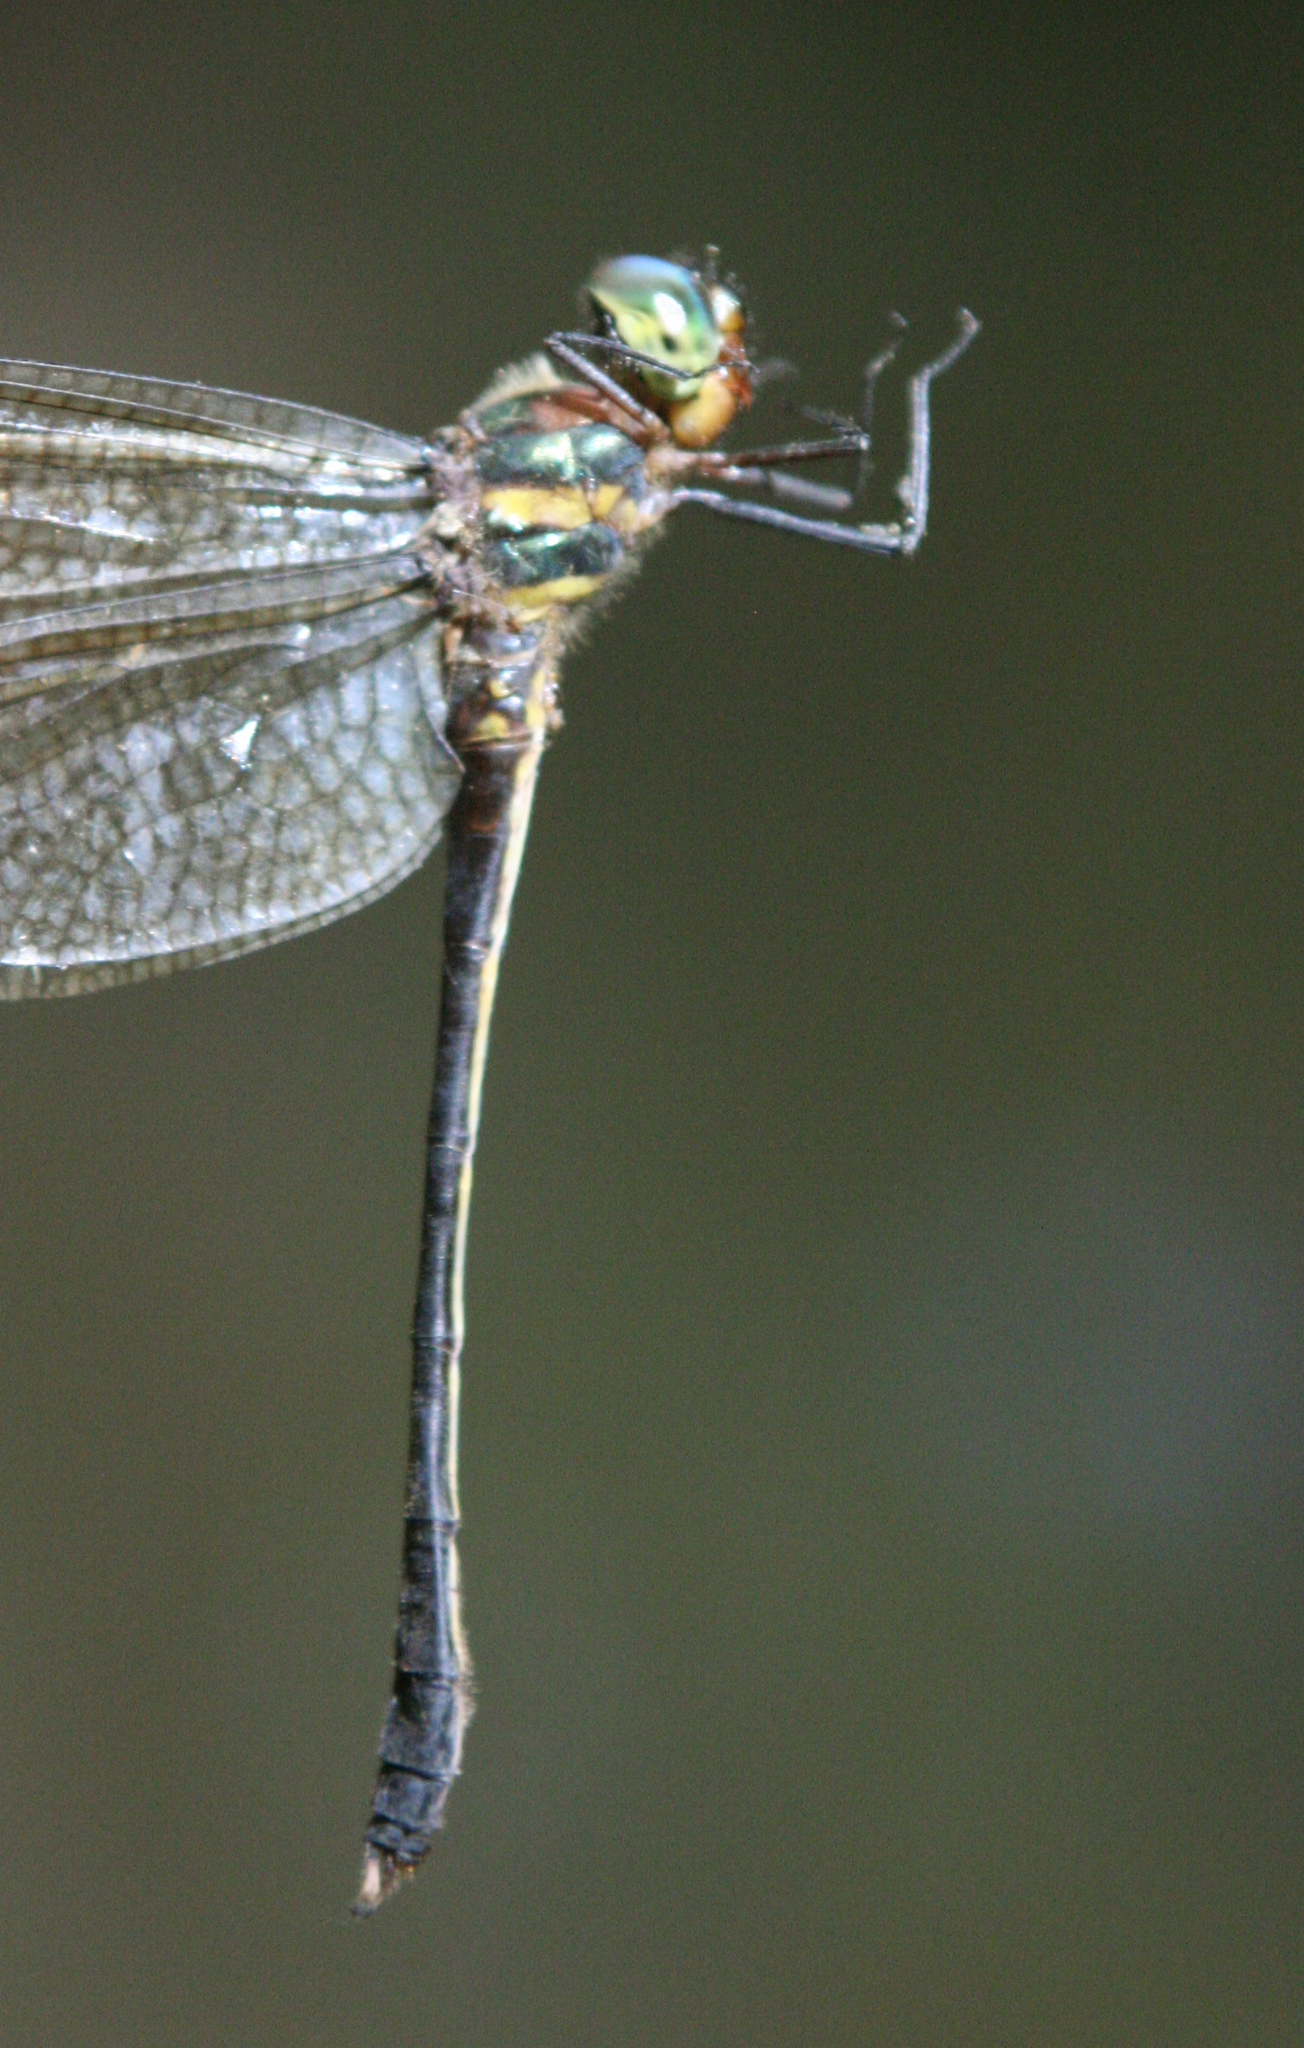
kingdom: Animalia
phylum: Arthropoda
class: Insecta
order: Odonata
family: Corduliidae
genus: Macromidia
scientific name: Macromidia rapida
